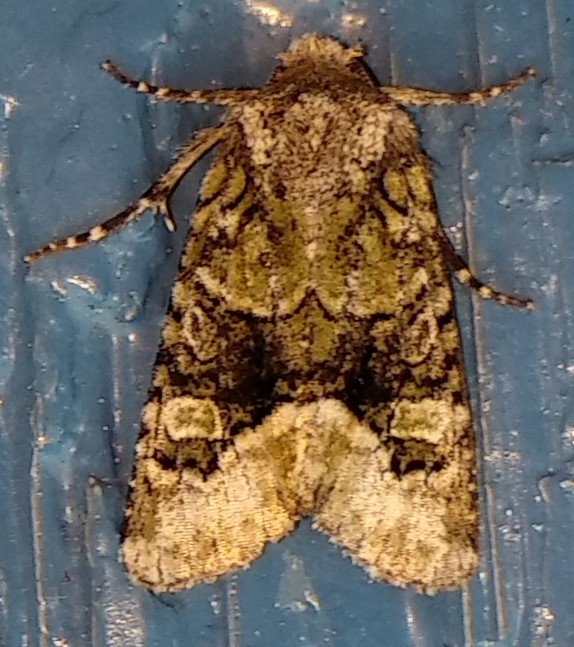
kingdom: Animalia
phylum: Arthropoda
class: Insecta
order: Lepidoptera
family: Noctuidae
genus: Lacinipolia
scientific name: Lacinipolia olivacea
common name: Olive arches moth
